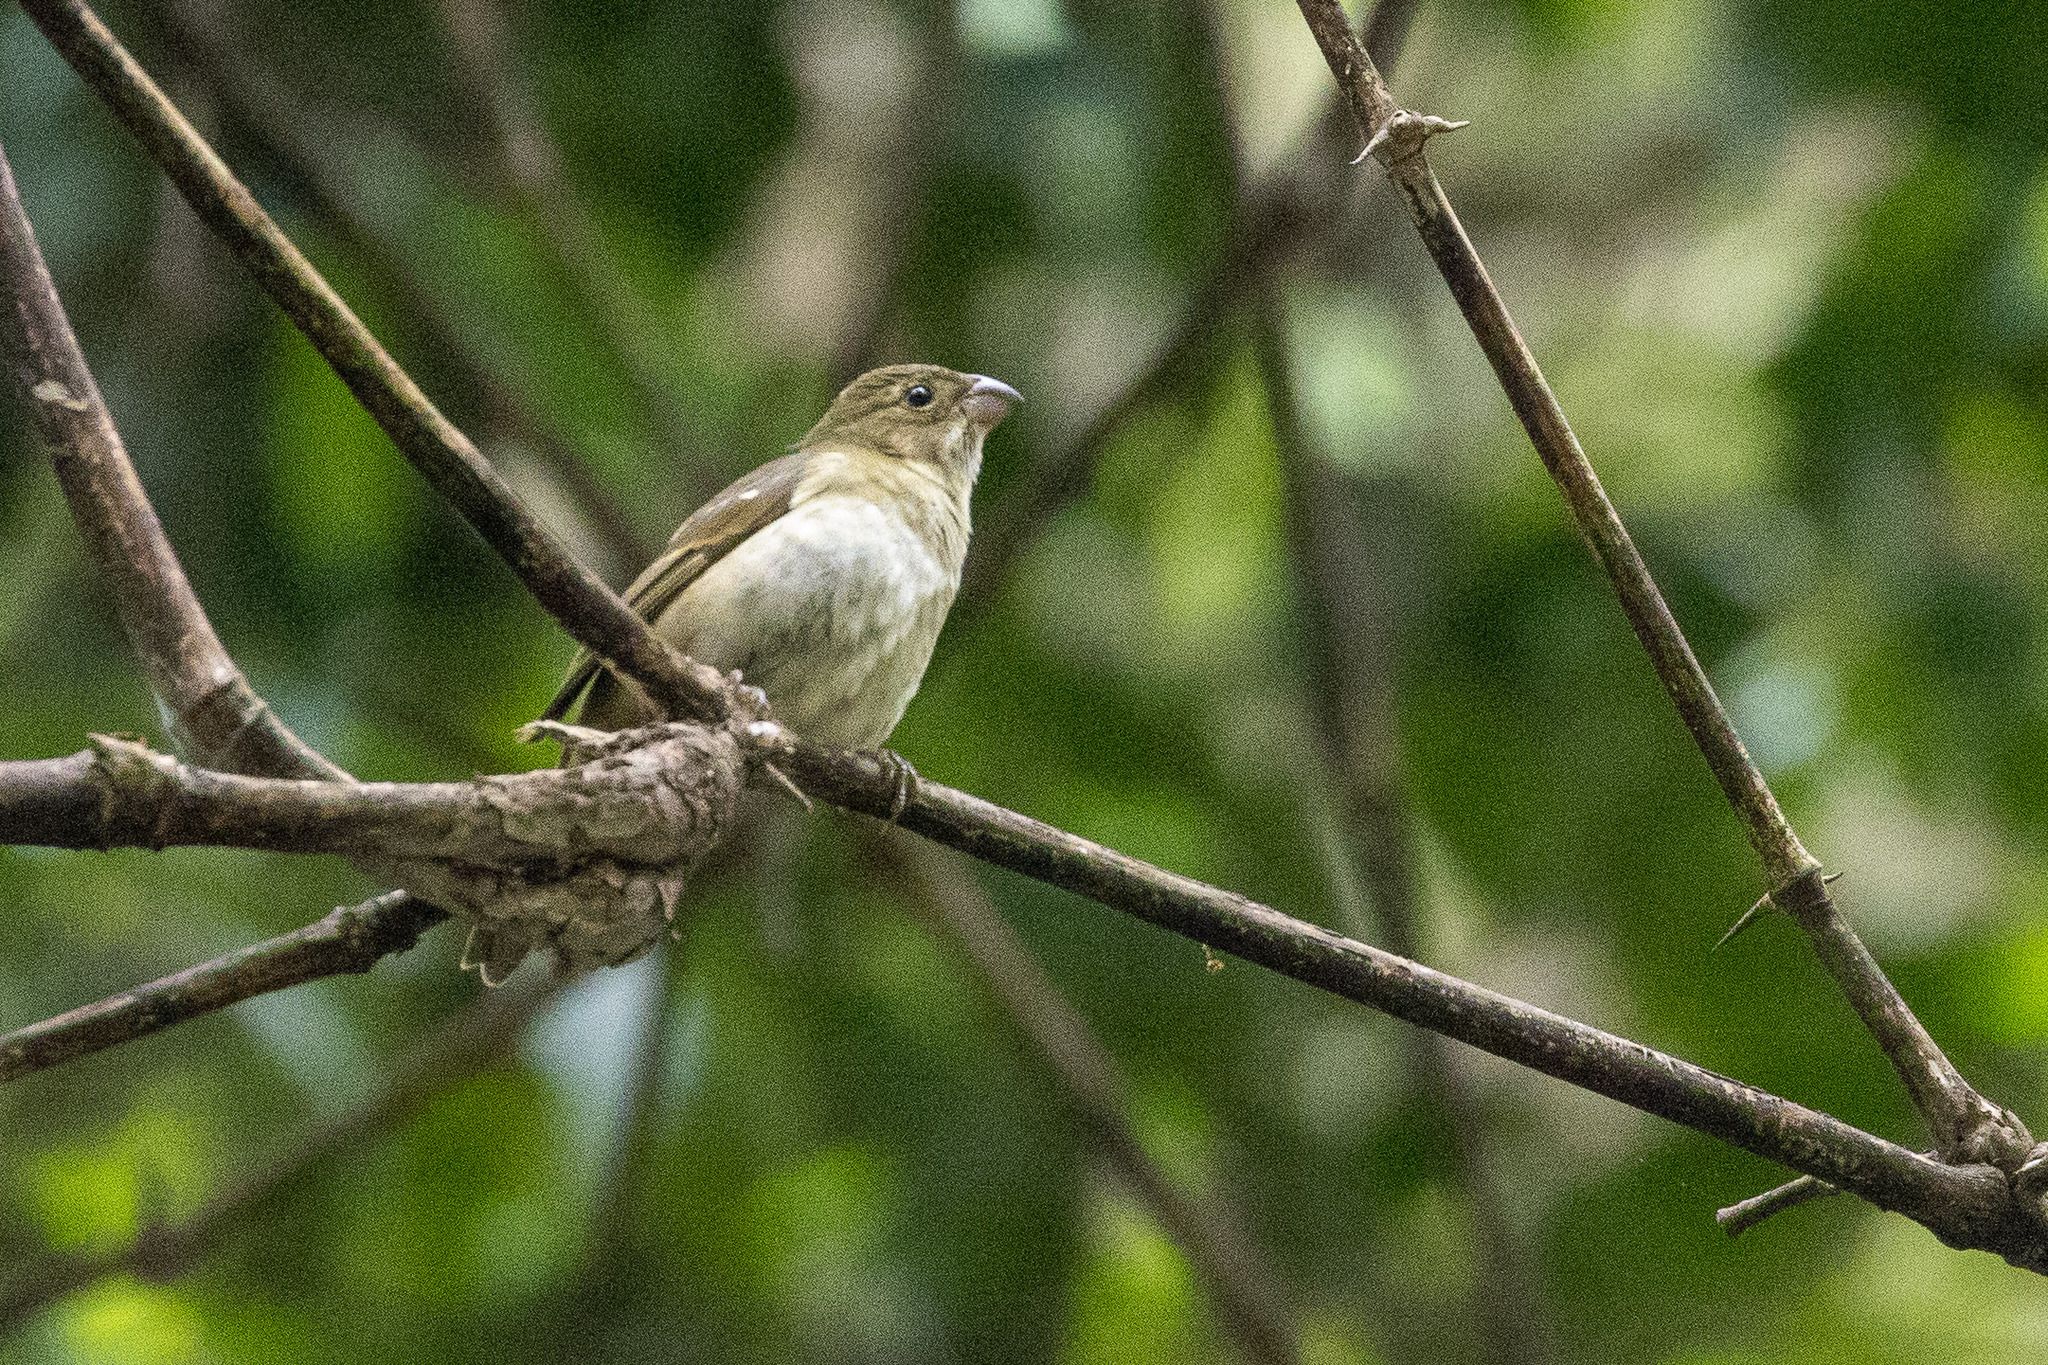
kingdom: Animalia
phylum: Chordata
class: Aves
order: Passeriformes
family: Thraupidae
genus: Sporophila
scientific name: Sporophila frontalis
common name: Buffy-fronted seedeater
